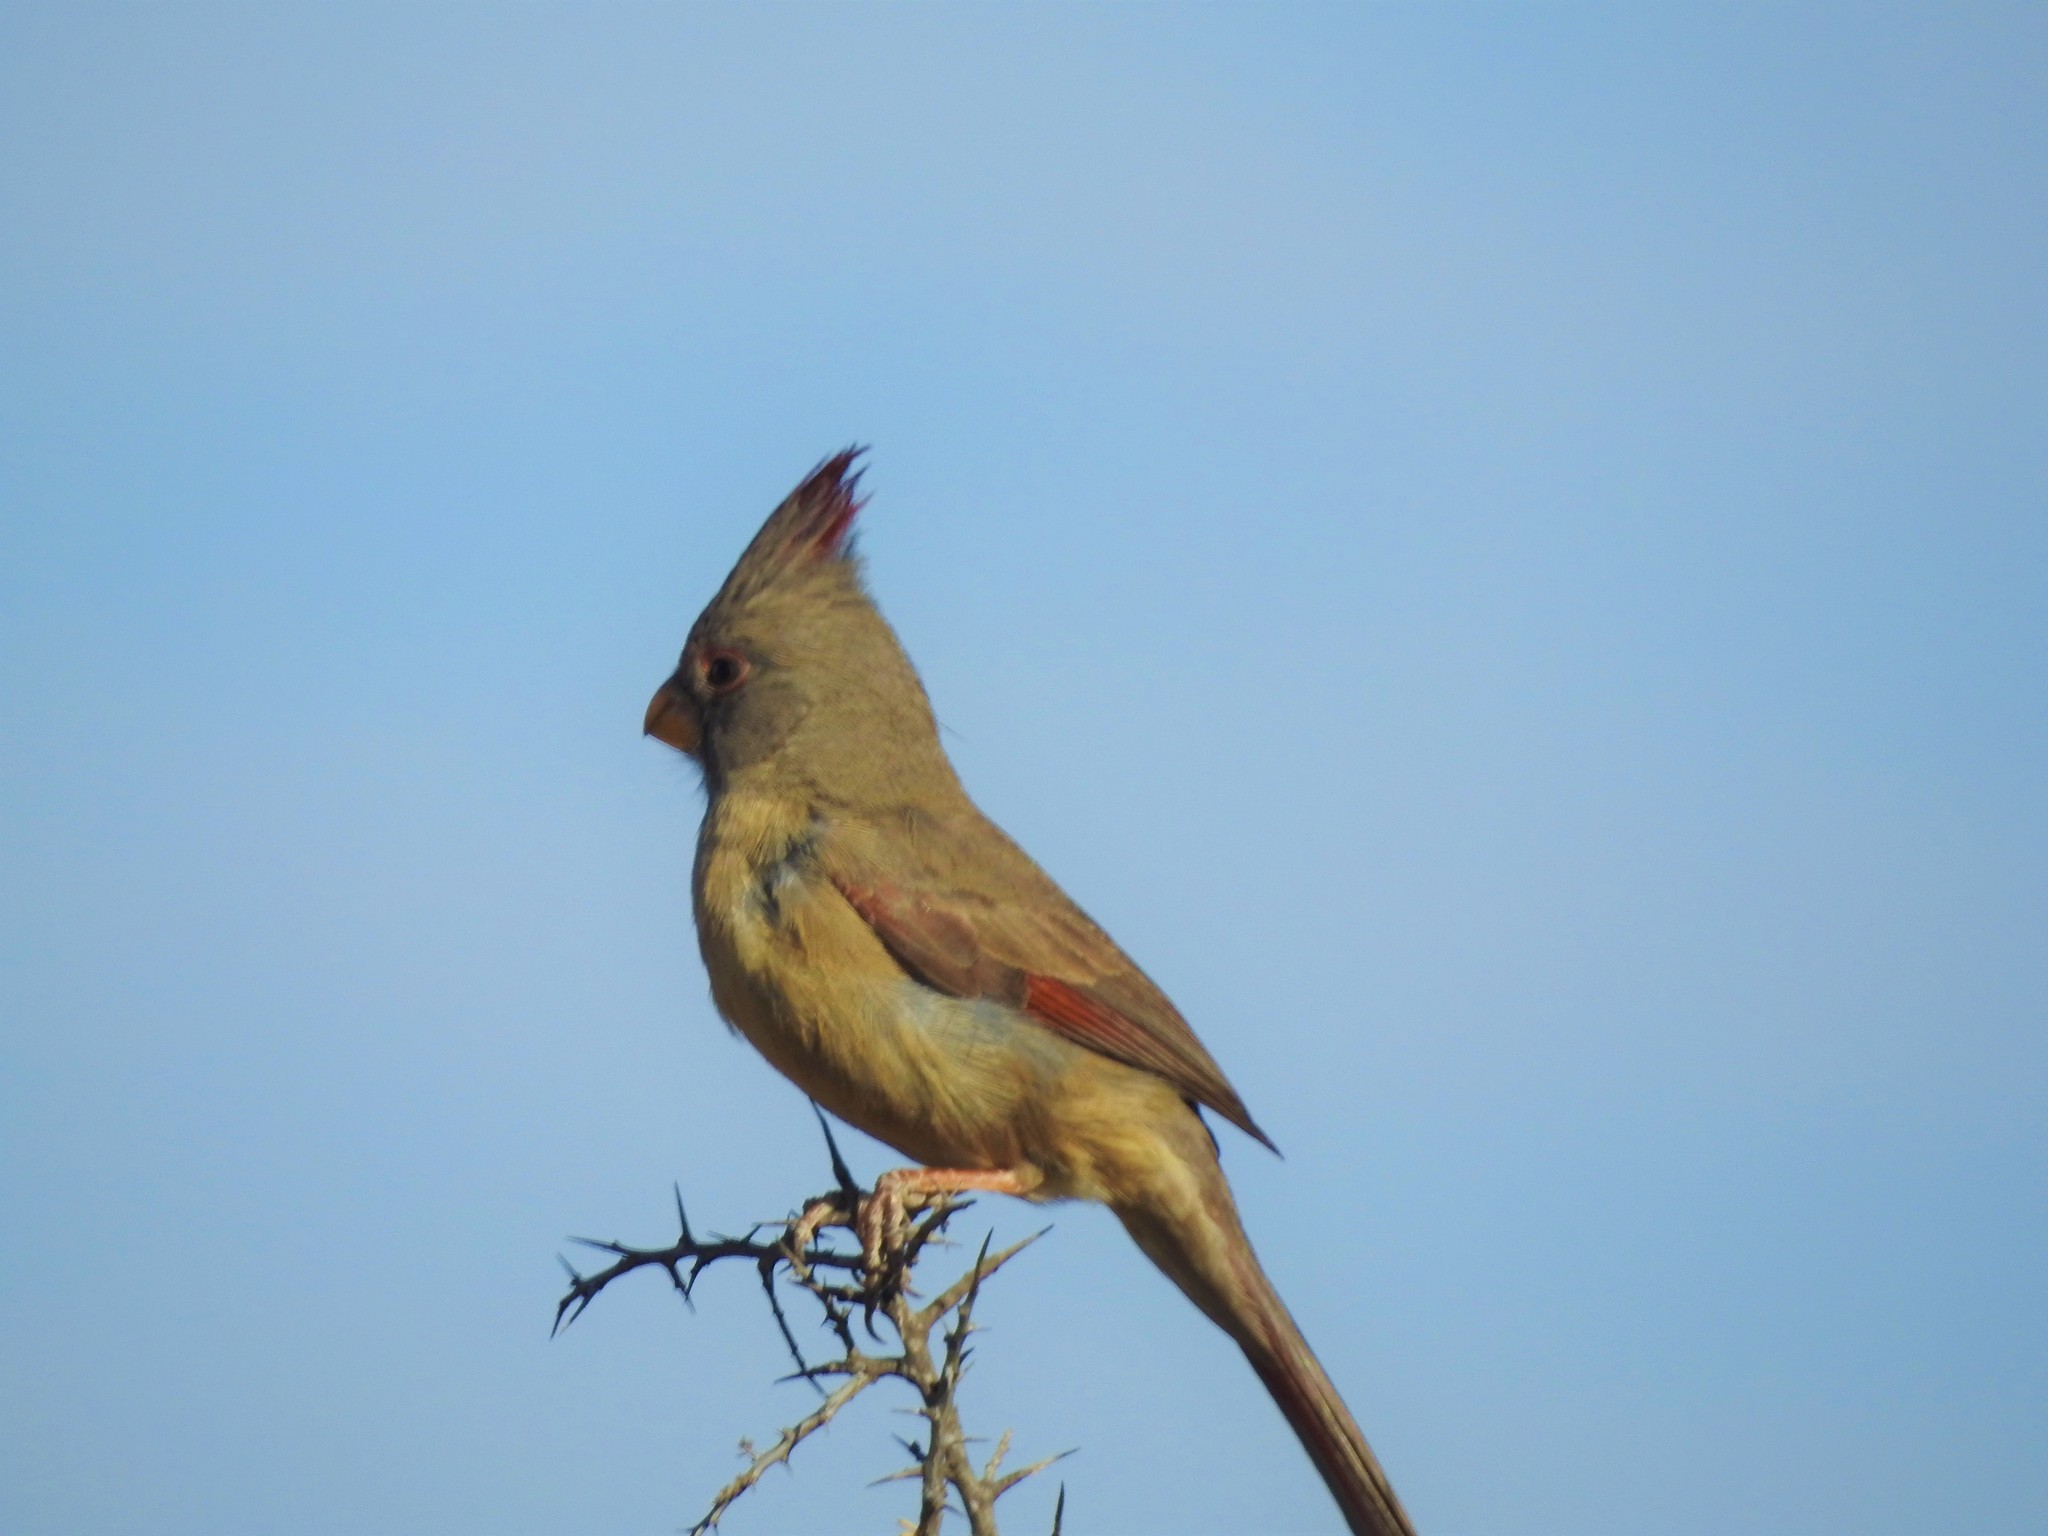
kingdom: Animalia
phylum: Chordata
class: Aves
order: Passeriformes
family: Cardinalidae
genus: Cardinalis
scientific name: Cardinalis sinuatus
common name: Pyrrhuloxia
